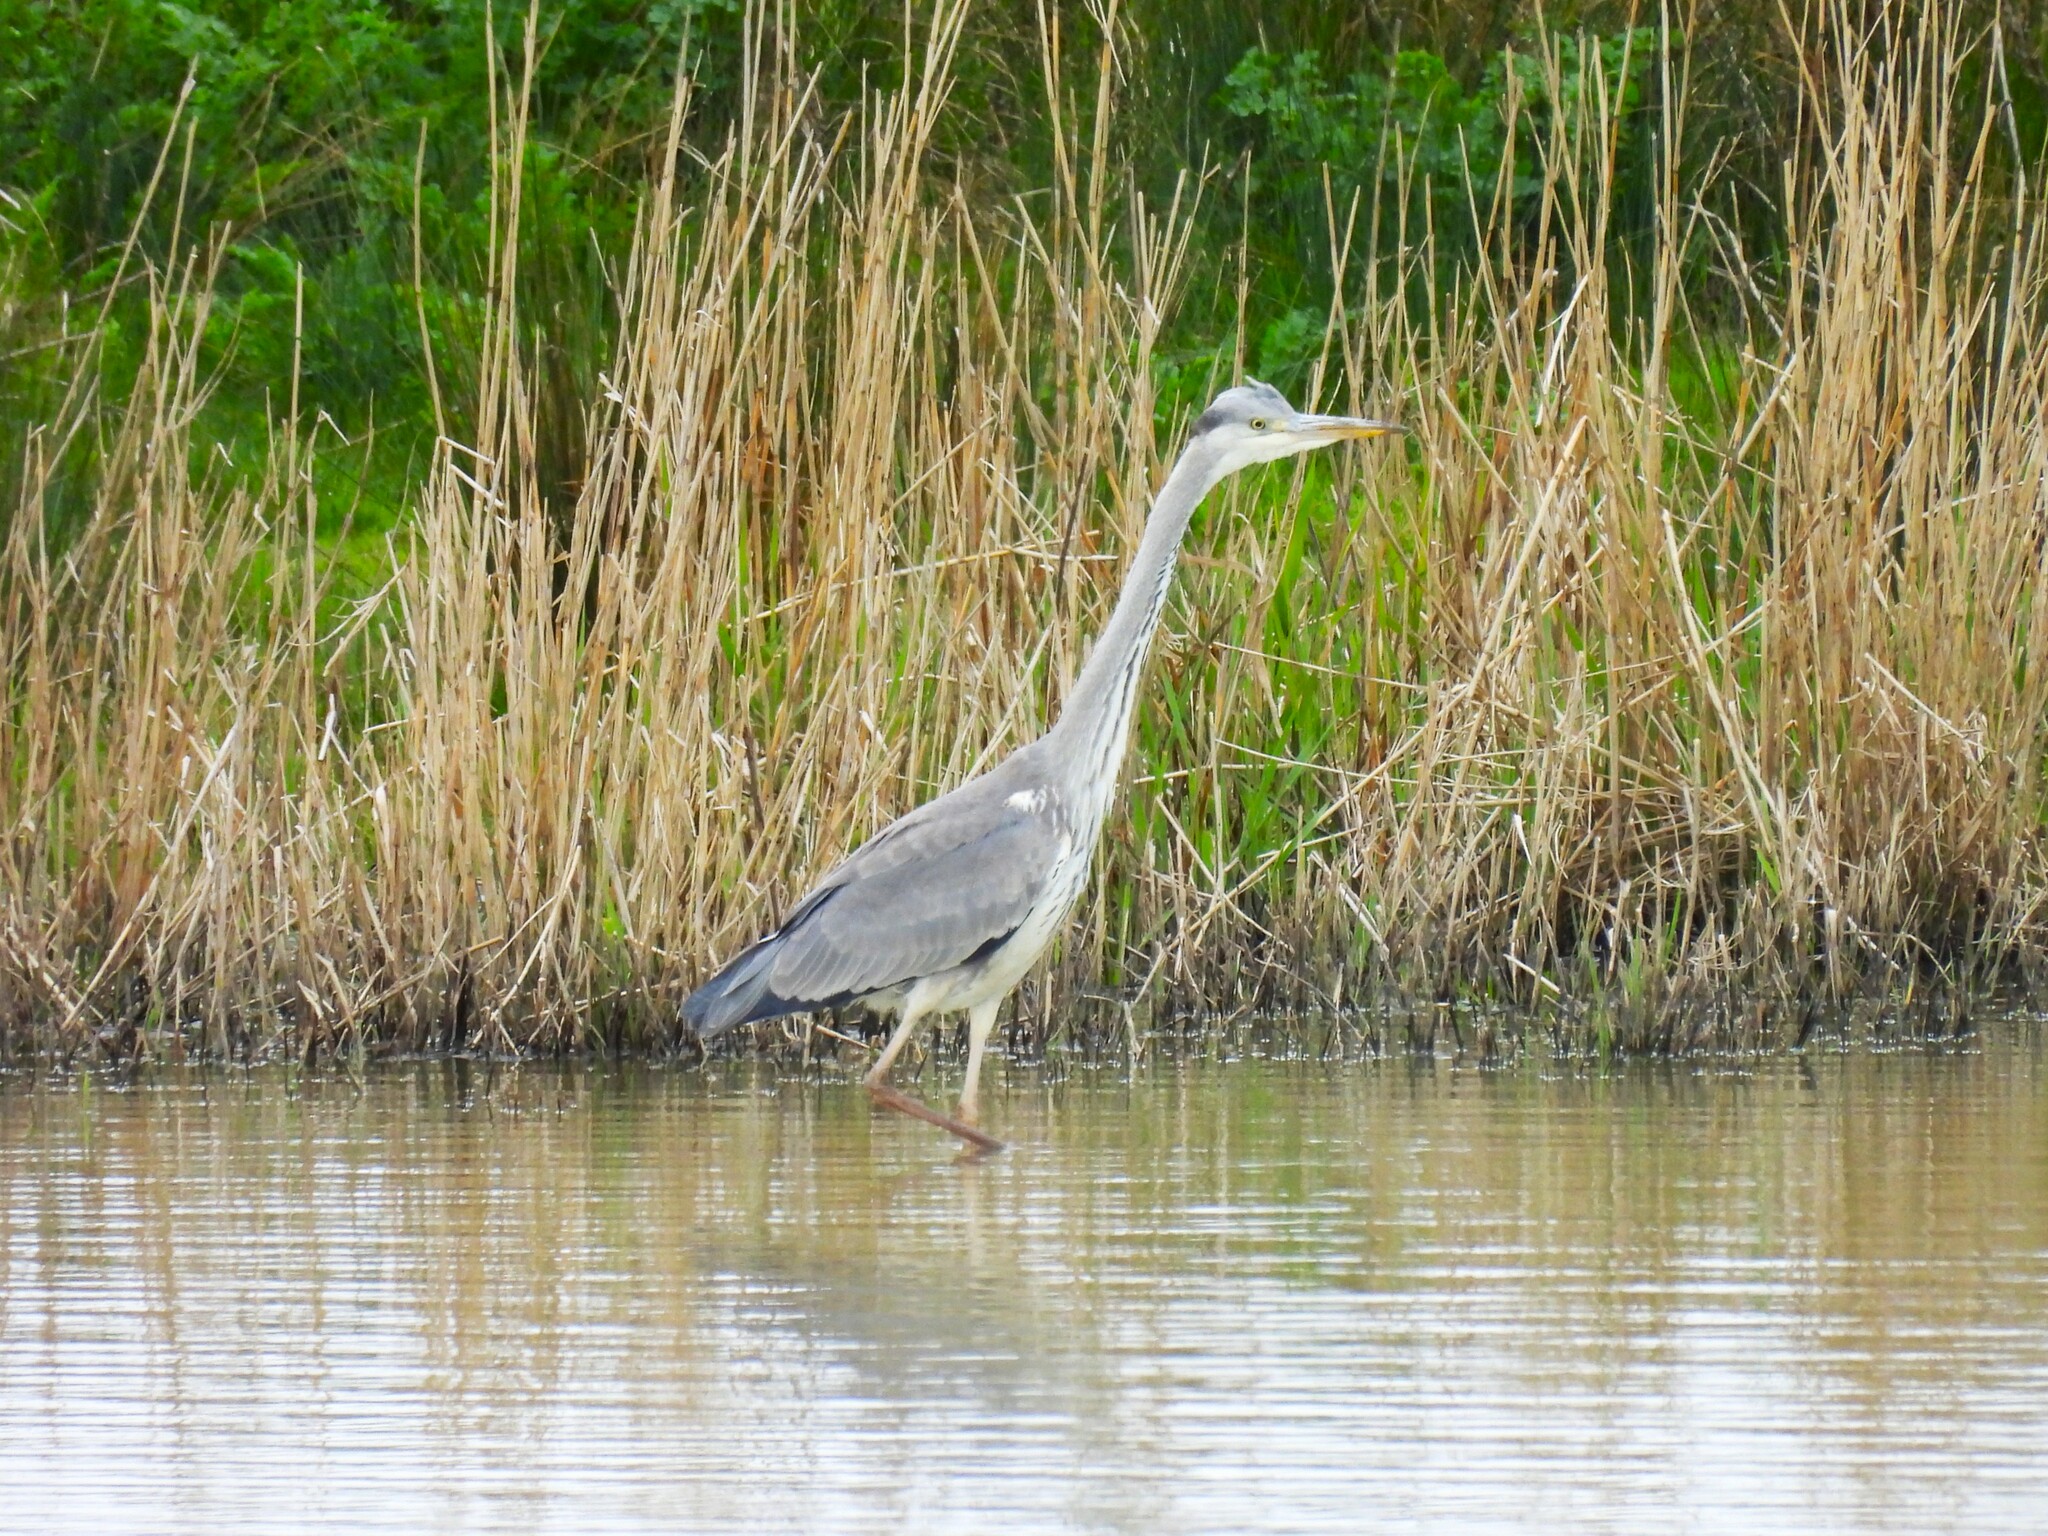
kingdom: Animalia
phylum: Chordata
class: Aves
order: Pelecaniformes
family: Ardeidae
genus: Ardea
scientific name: Ardea cinerea
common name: Grey heron
